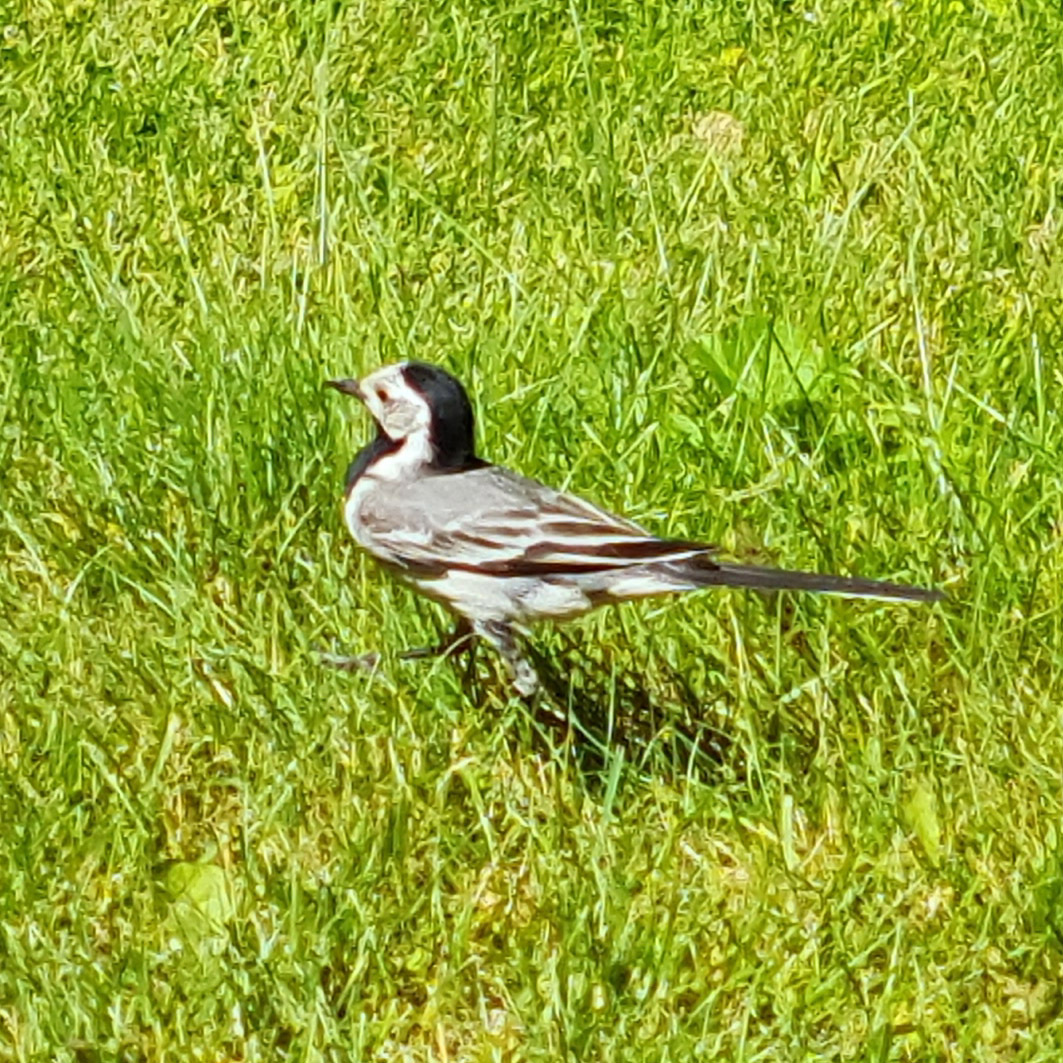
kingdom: Animalia
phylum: Chordata
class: Aves
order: Passeriformes
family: Motacillidae
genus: Motacilla
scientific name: Motacilla alba
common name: White wagtail
